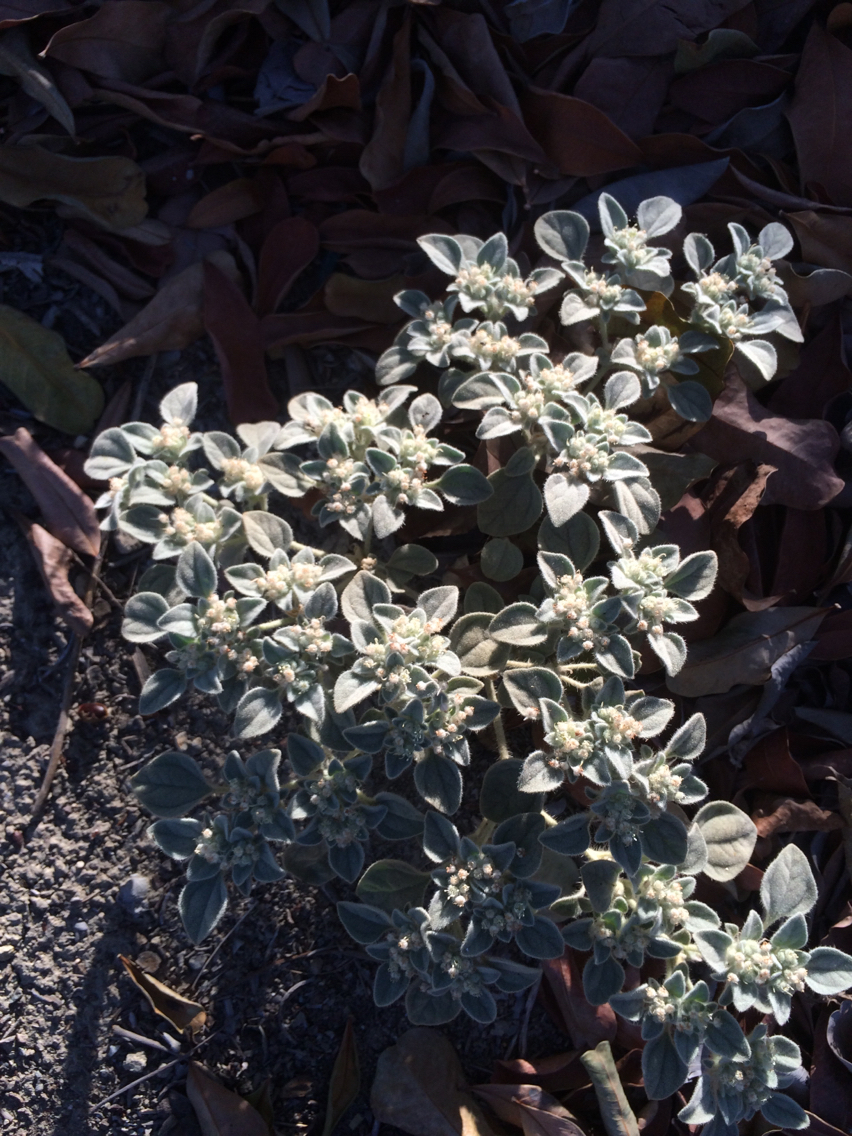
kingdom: Plantae
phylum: Tracheophyta
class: Magnoliopsida
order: Malpighiales
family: Euphorbiaceae
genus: Croton
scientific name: Croton setiger
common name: Dove weed
